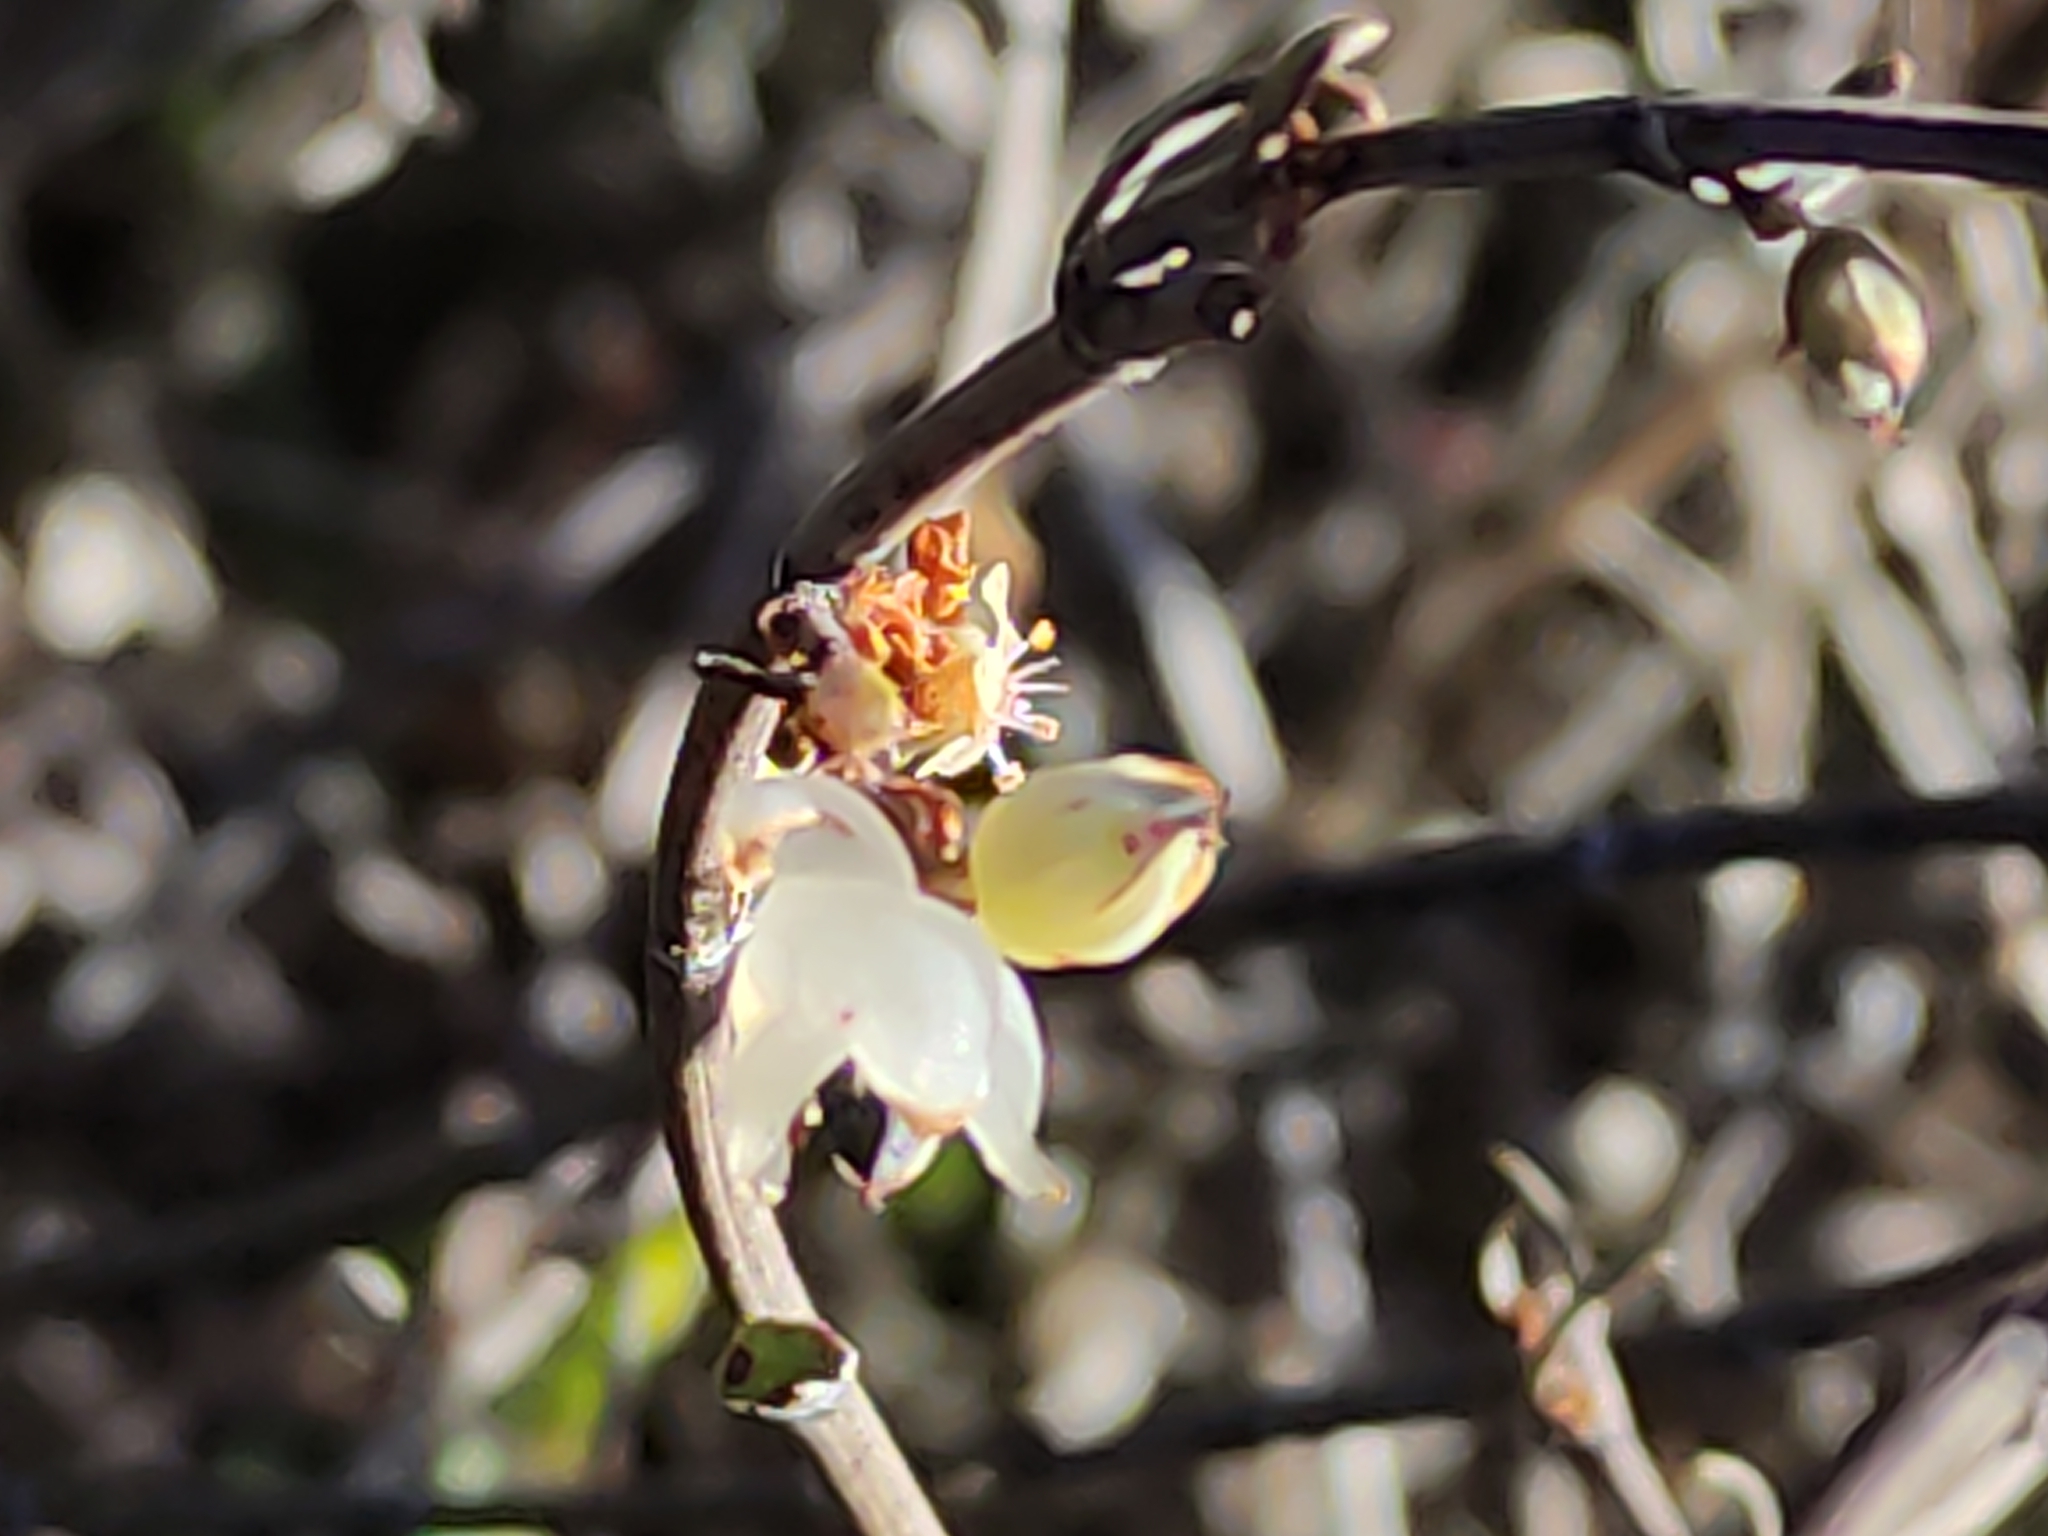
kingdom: Plantae
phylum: Tracheophyta
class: Magnoliopsida
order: Caryophyllales
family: Polygonaceae
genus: Muehlenbeckia
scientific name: Muehlenbeckia ephedroides
